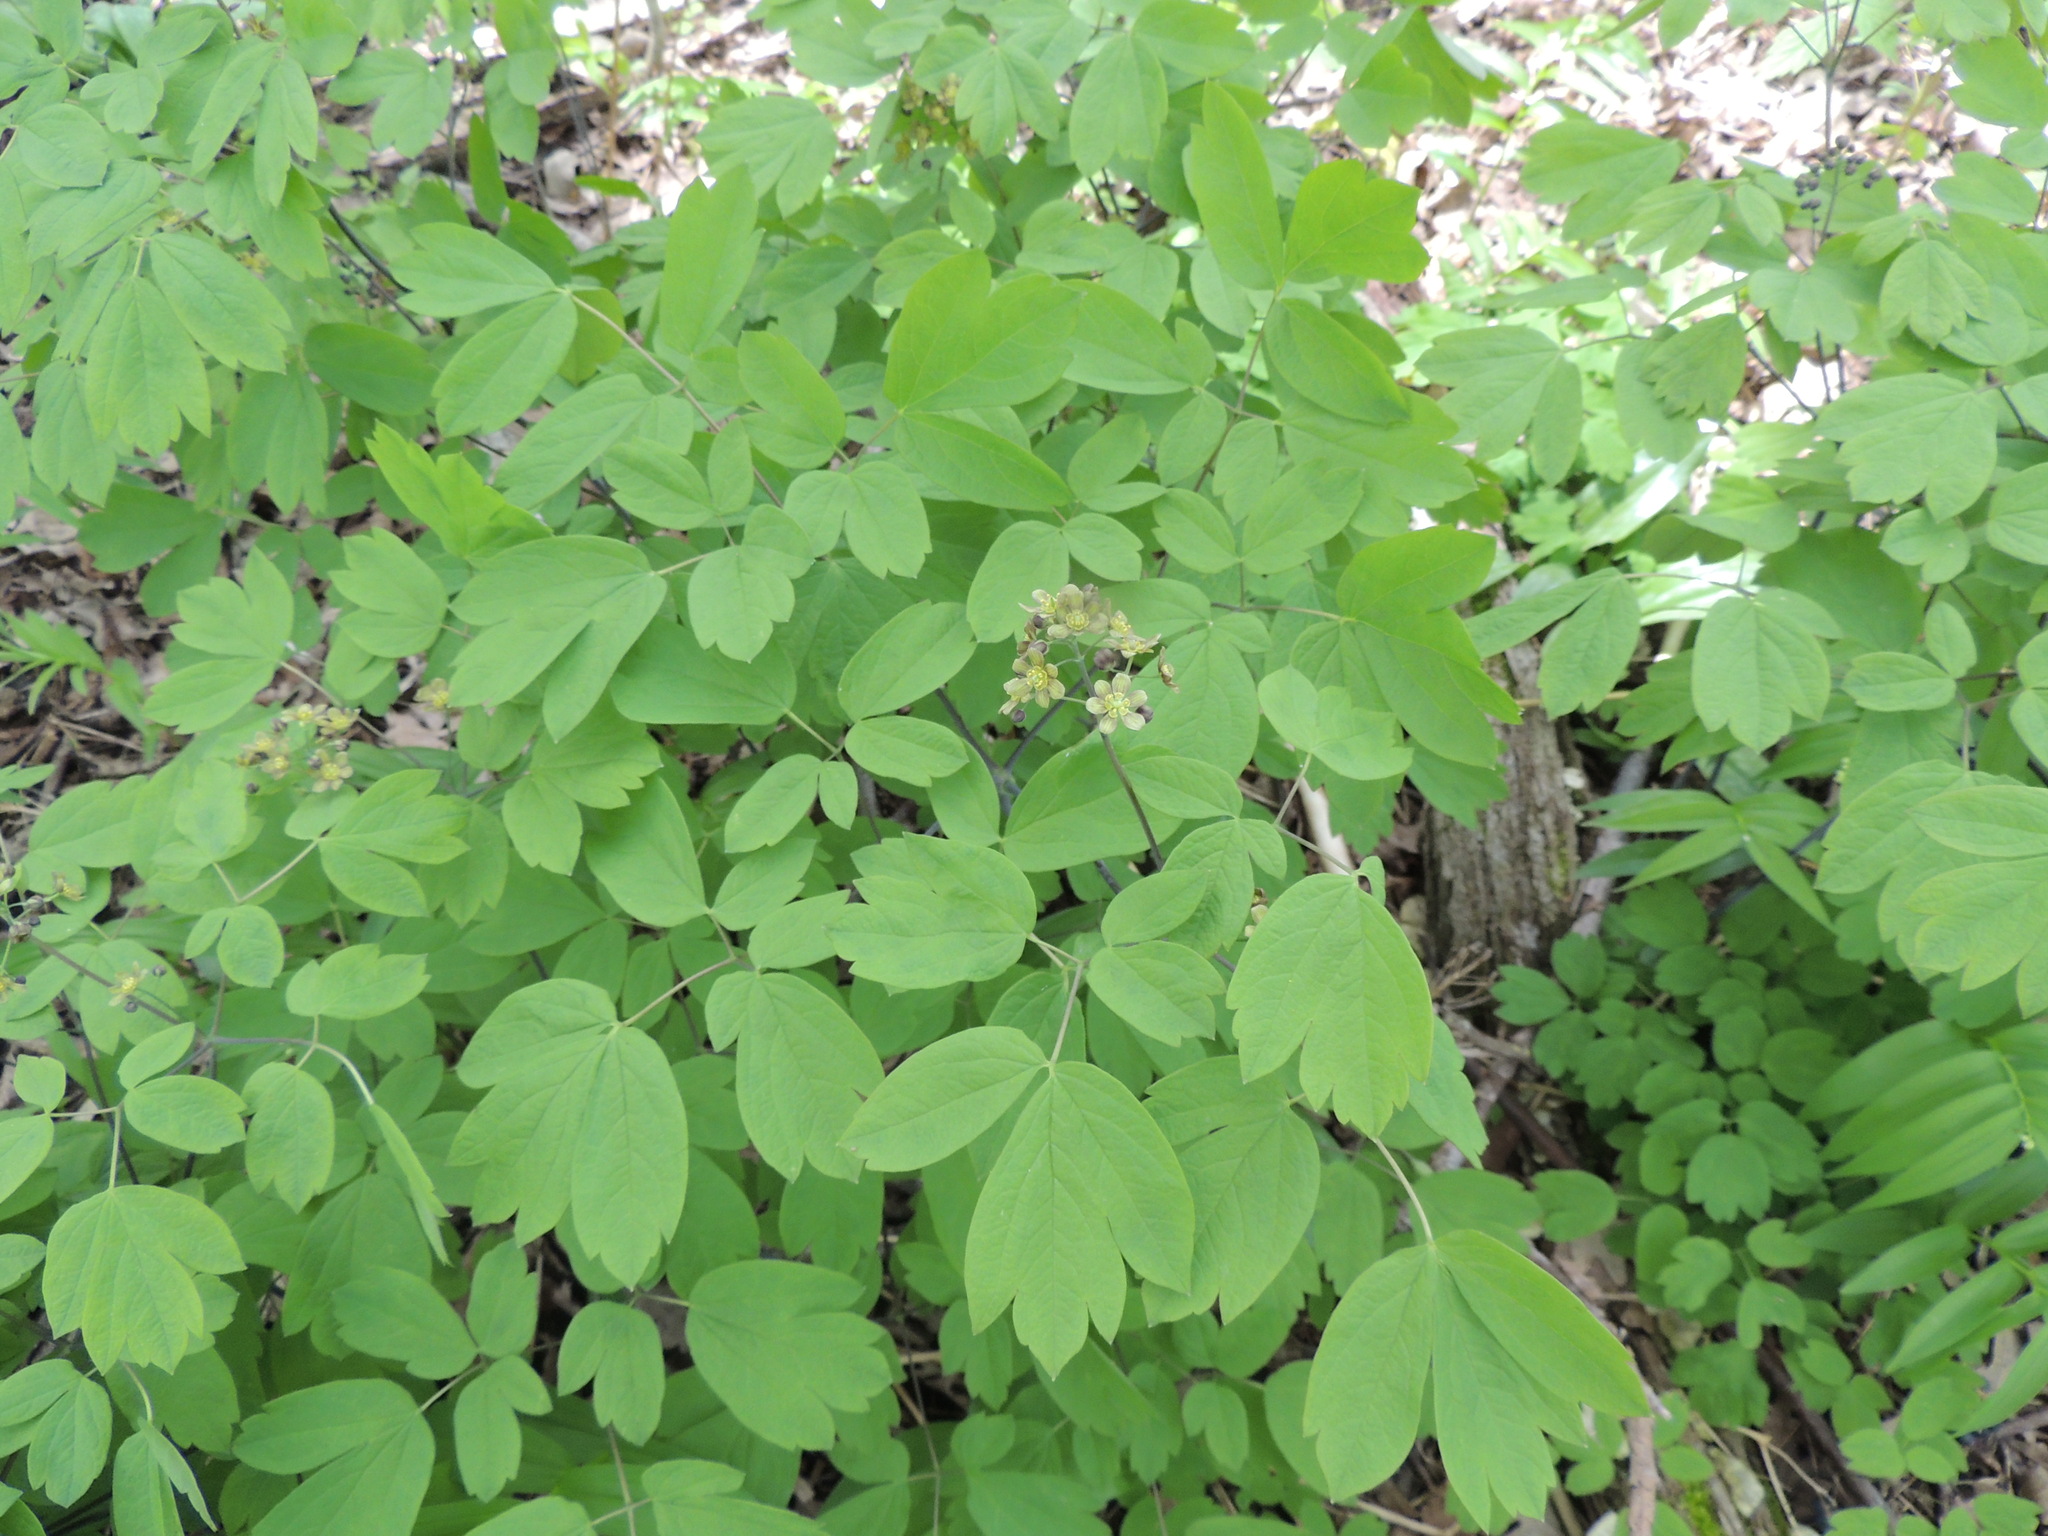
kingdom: Plantae
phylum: Tracheophyta
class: Magnoliopsida
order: Ranunculales
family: Berberidaceae
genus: Caulophyllum
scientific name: Caulophyllum thalictroides
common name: Blue cohosh
